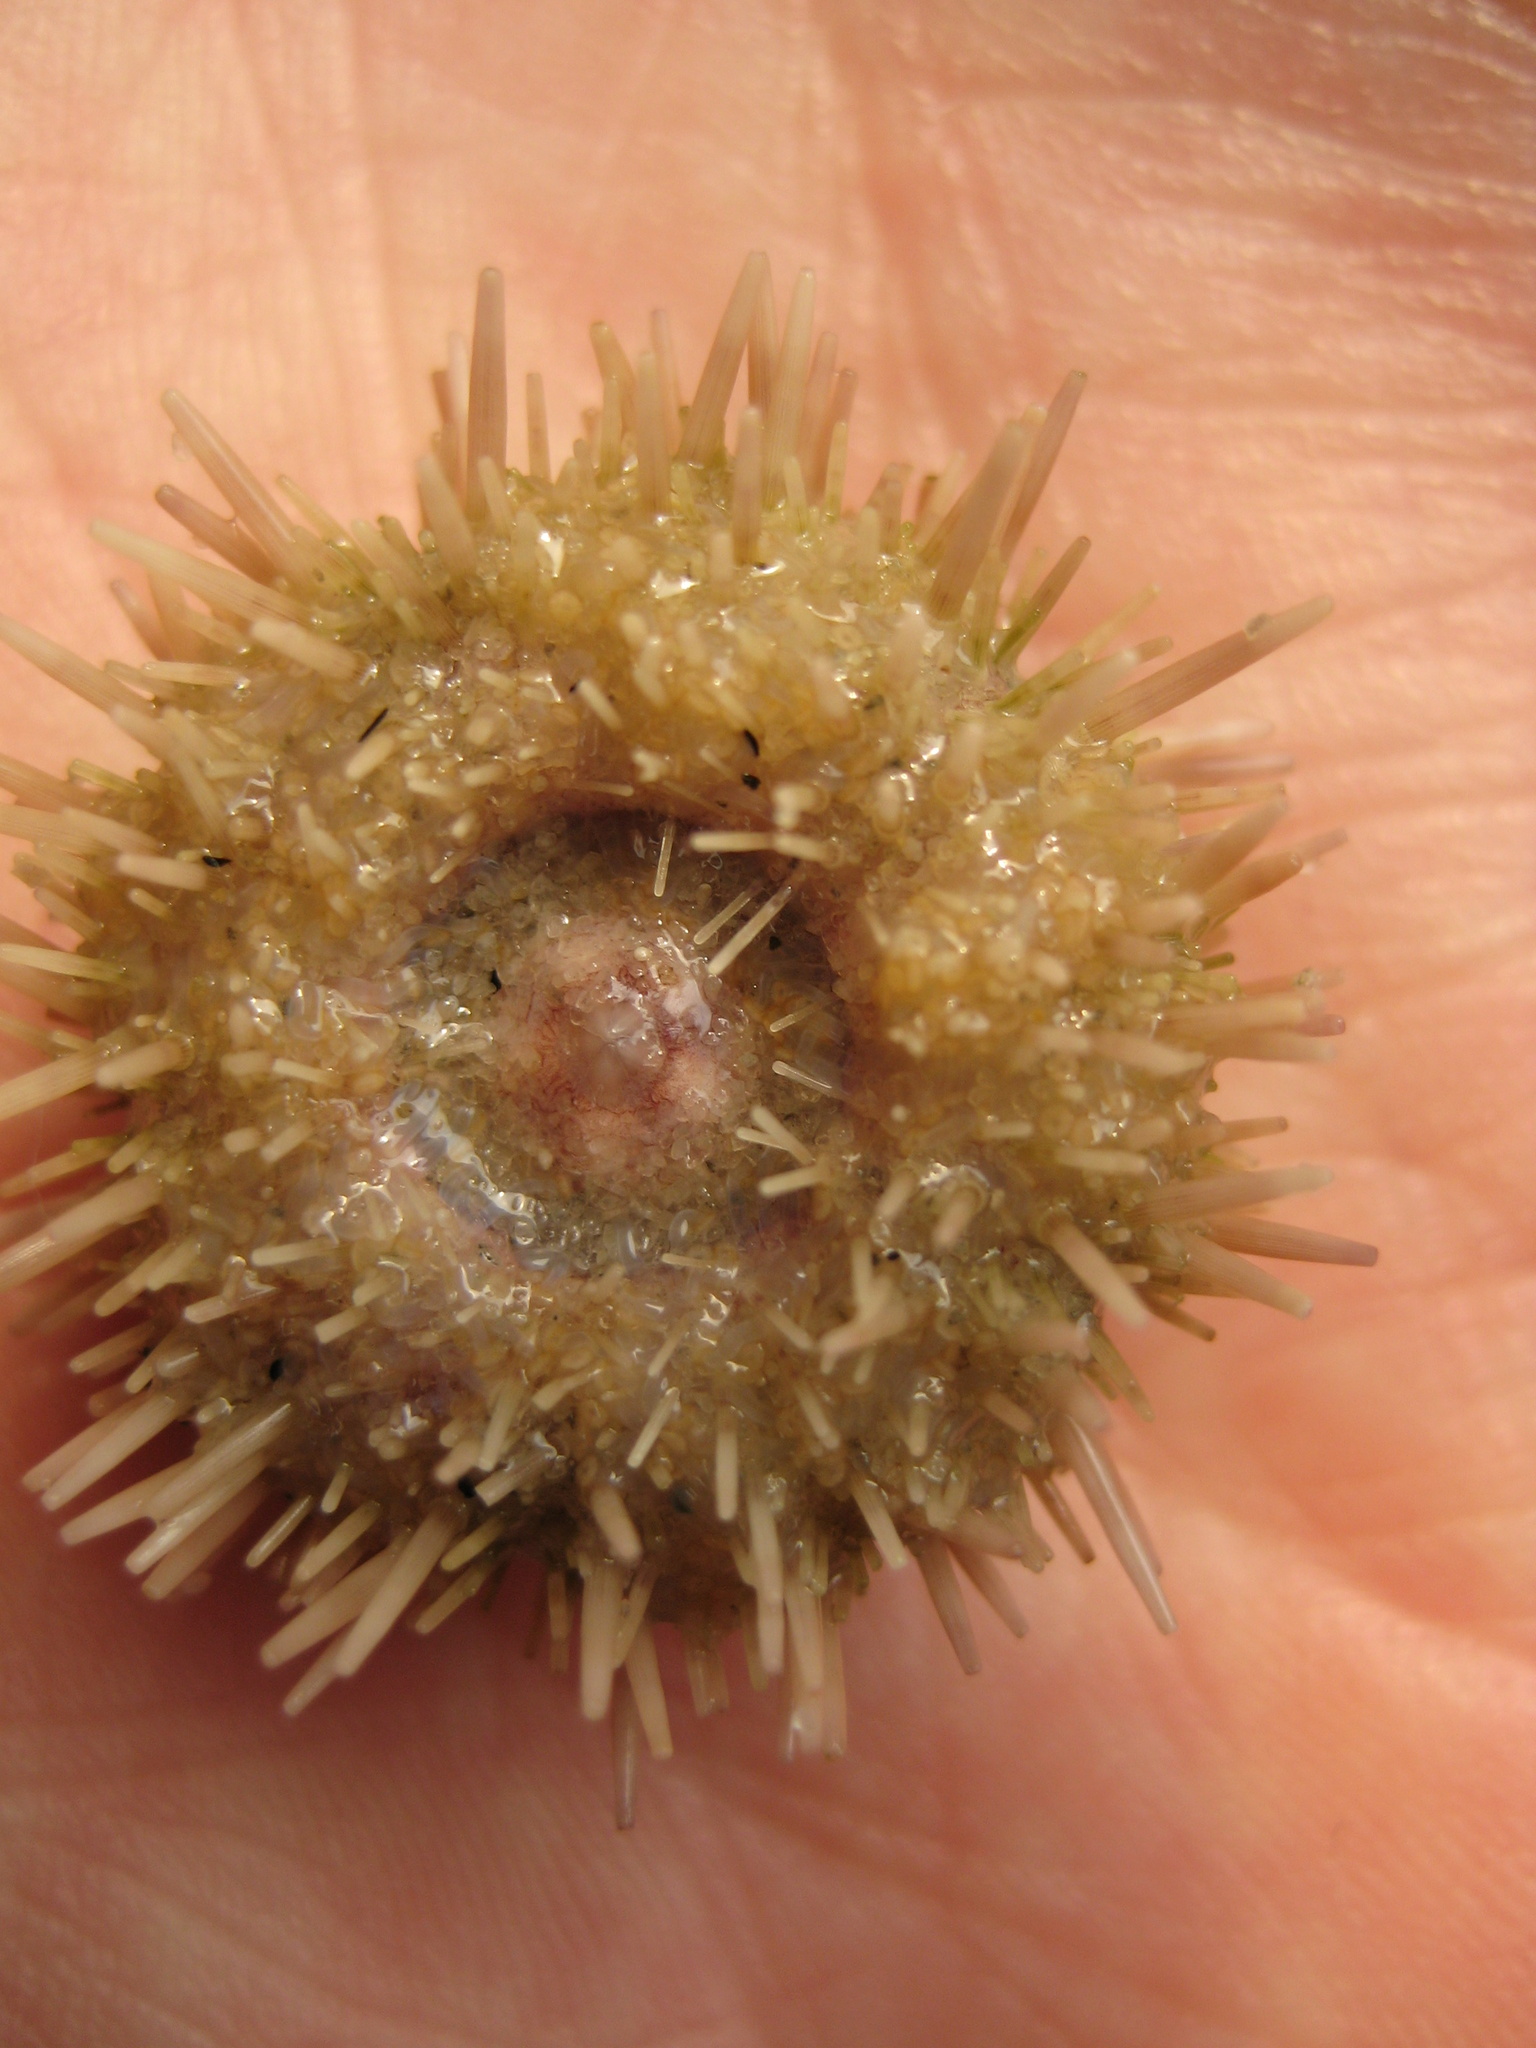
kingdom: Animalia
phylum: Echinodermata
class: Echinoidea
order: Camarodonta
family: Strongylocentrotidae
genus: Strongylocentrotus
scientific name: Strongylocentrotus purpuratus
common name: Purple sea urchin
